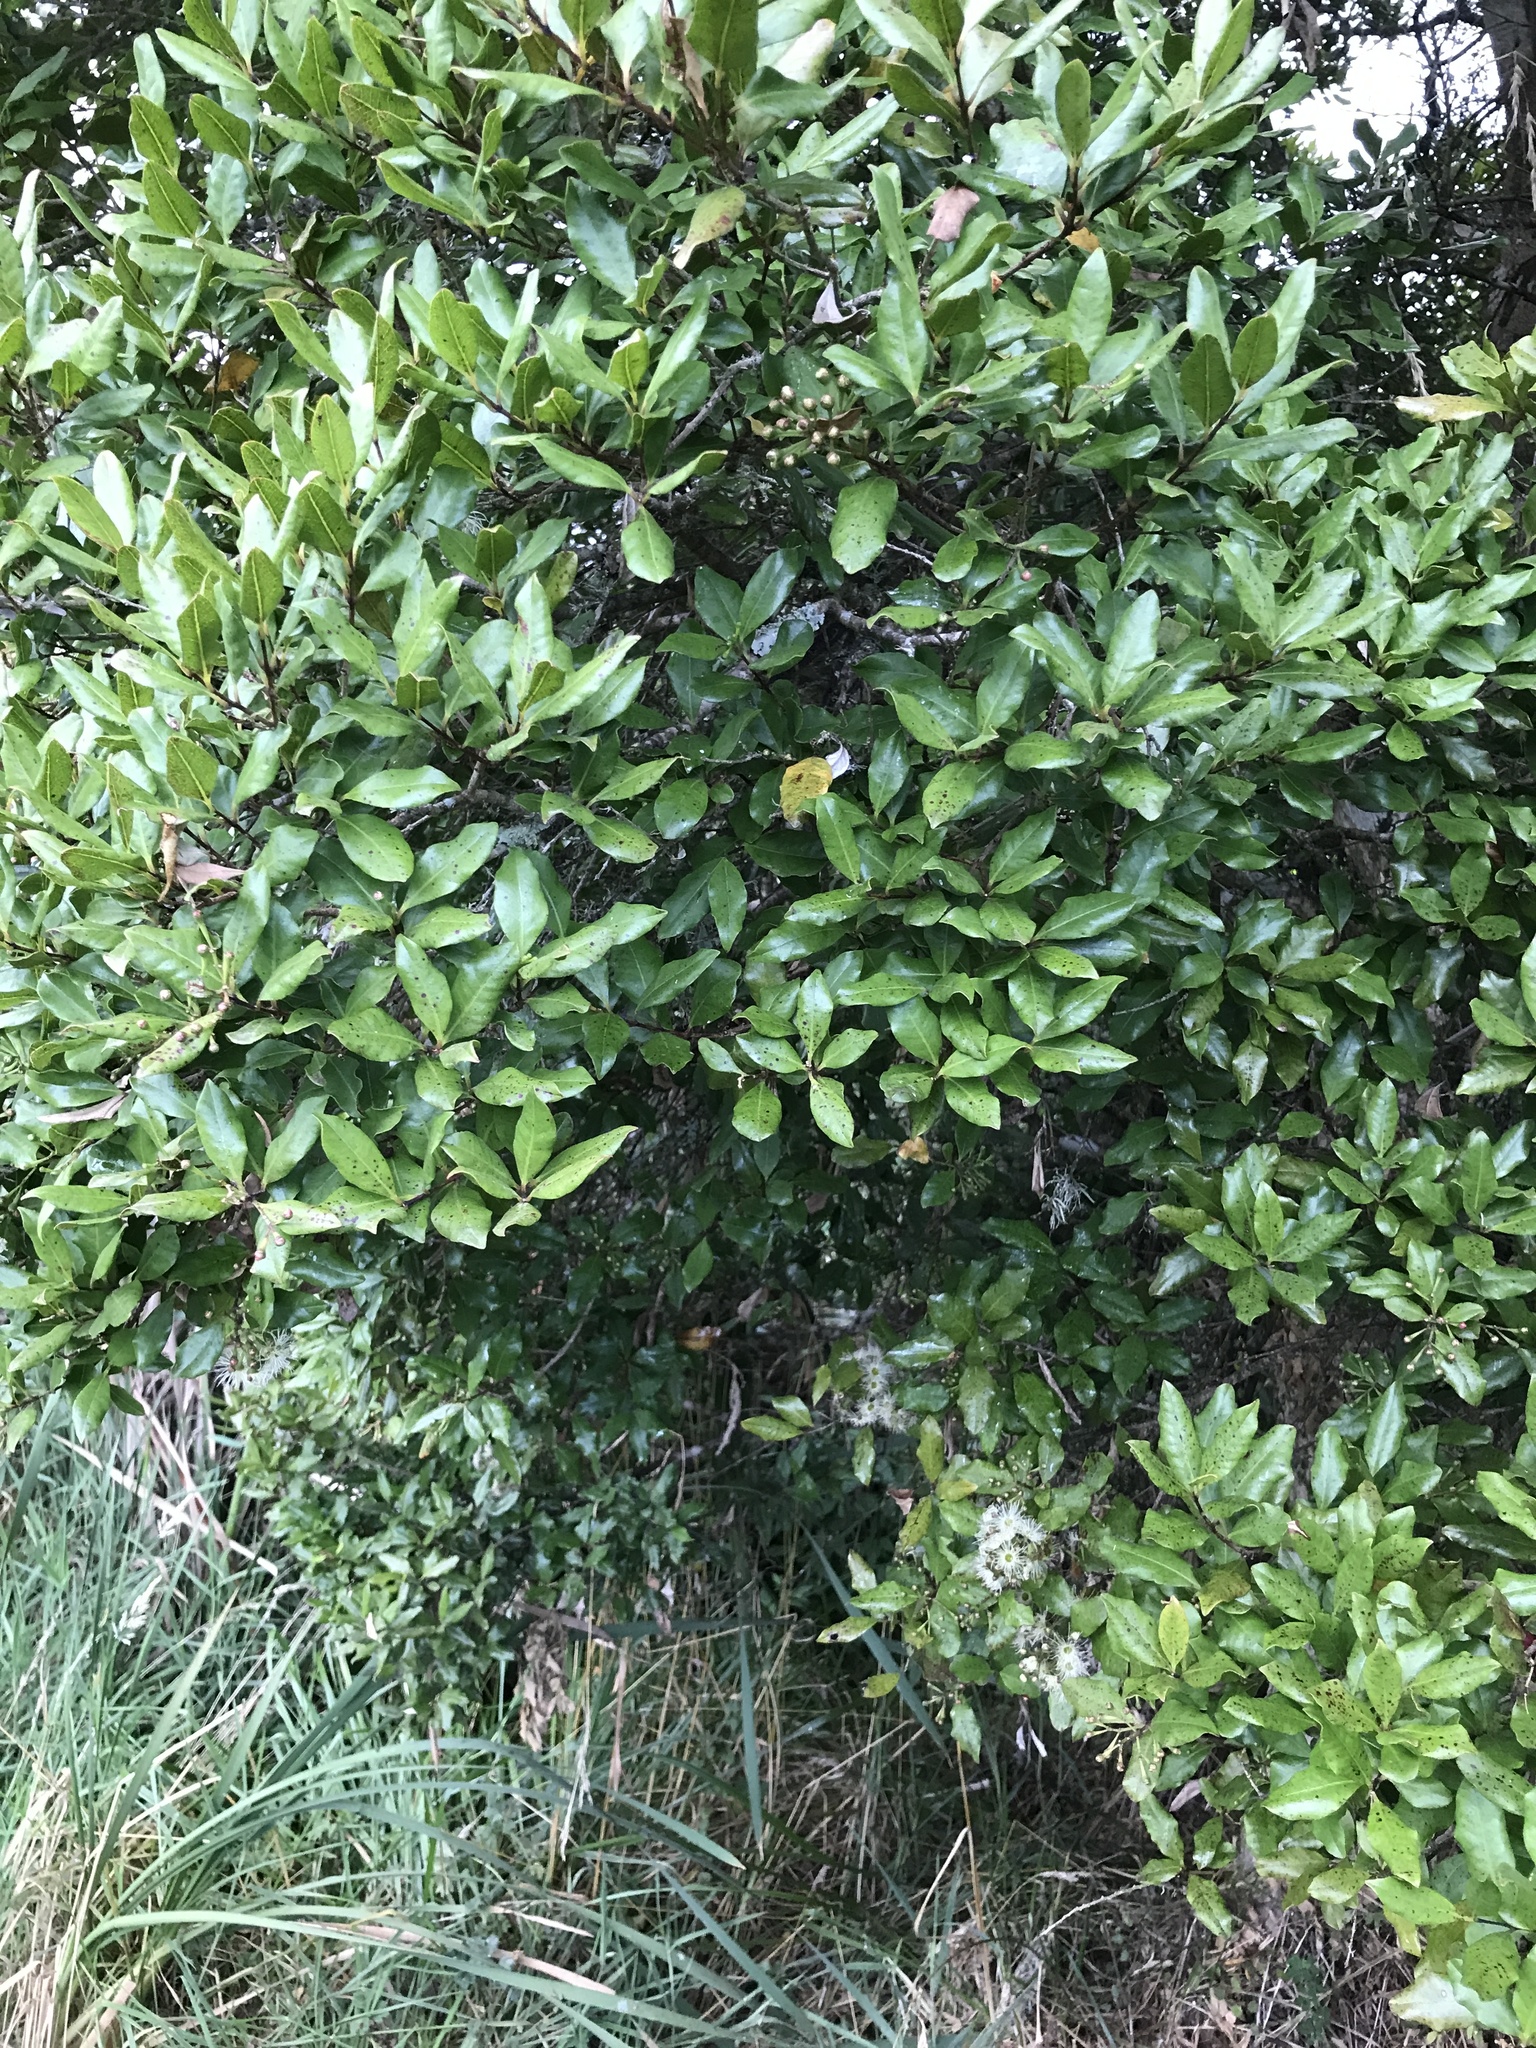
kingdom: Plantae
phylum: Tracheophyta
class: Magnoliopsida
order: Myrtales
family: Myrtaceae
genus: Syzygium
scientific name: Syzygium maire
